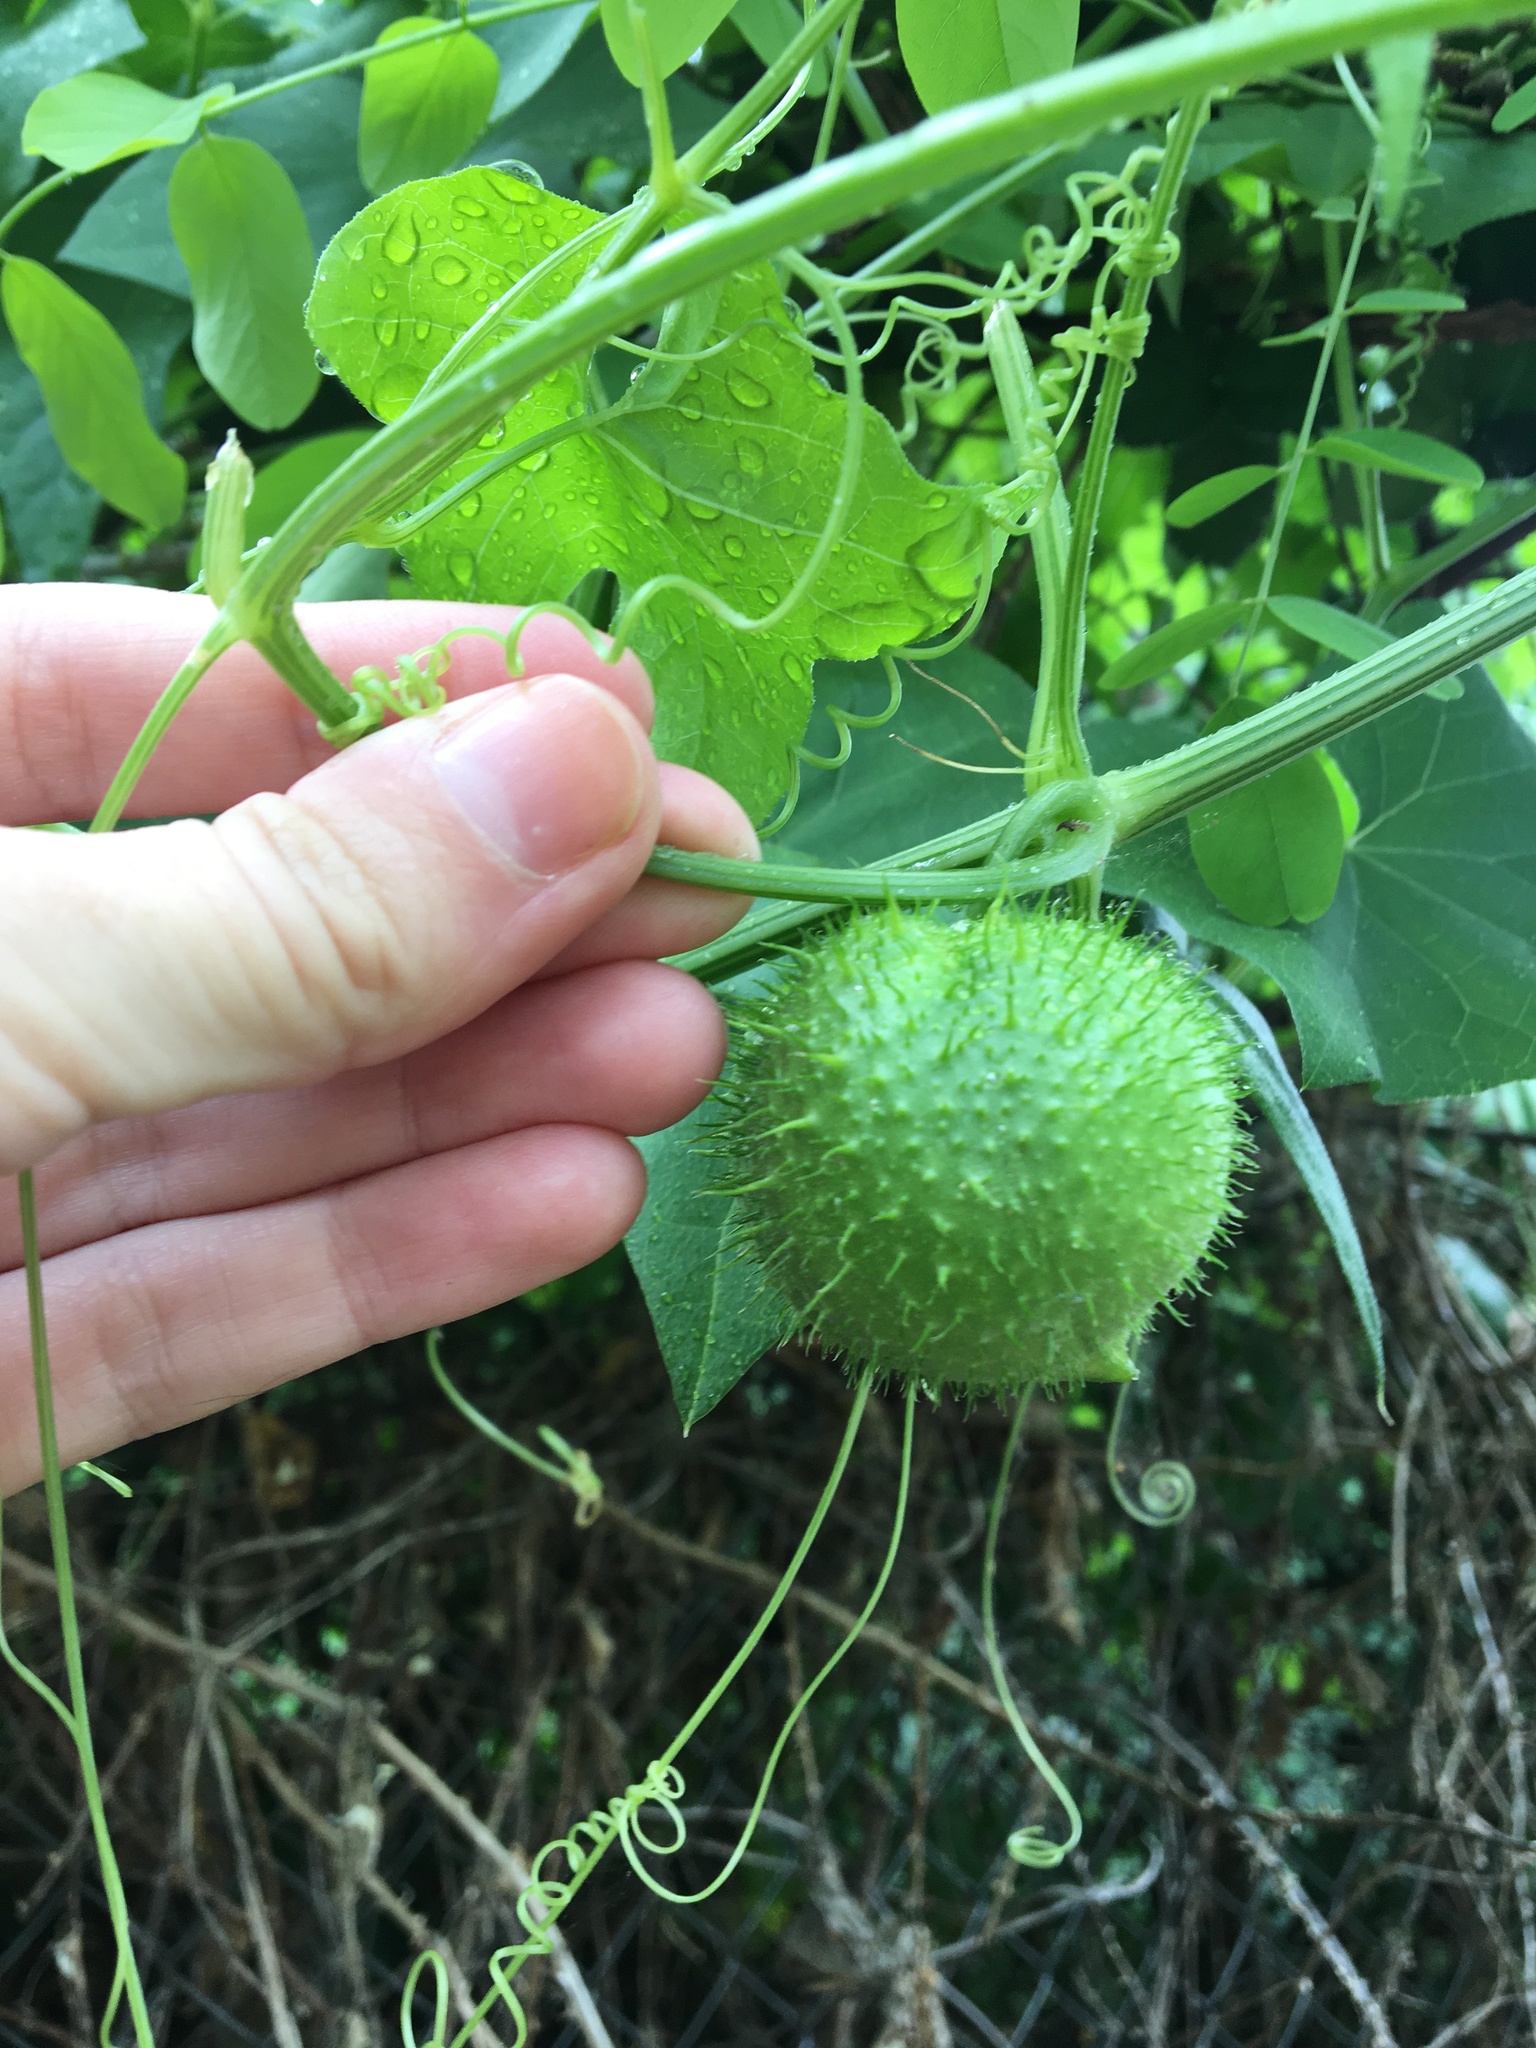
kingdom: Plantae
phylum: Tracheophyta
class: Magnoliopsida
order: Cucurbitales
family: Cucurbitaceae
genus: Marah
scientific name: Marah fabacea
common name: California manroot
